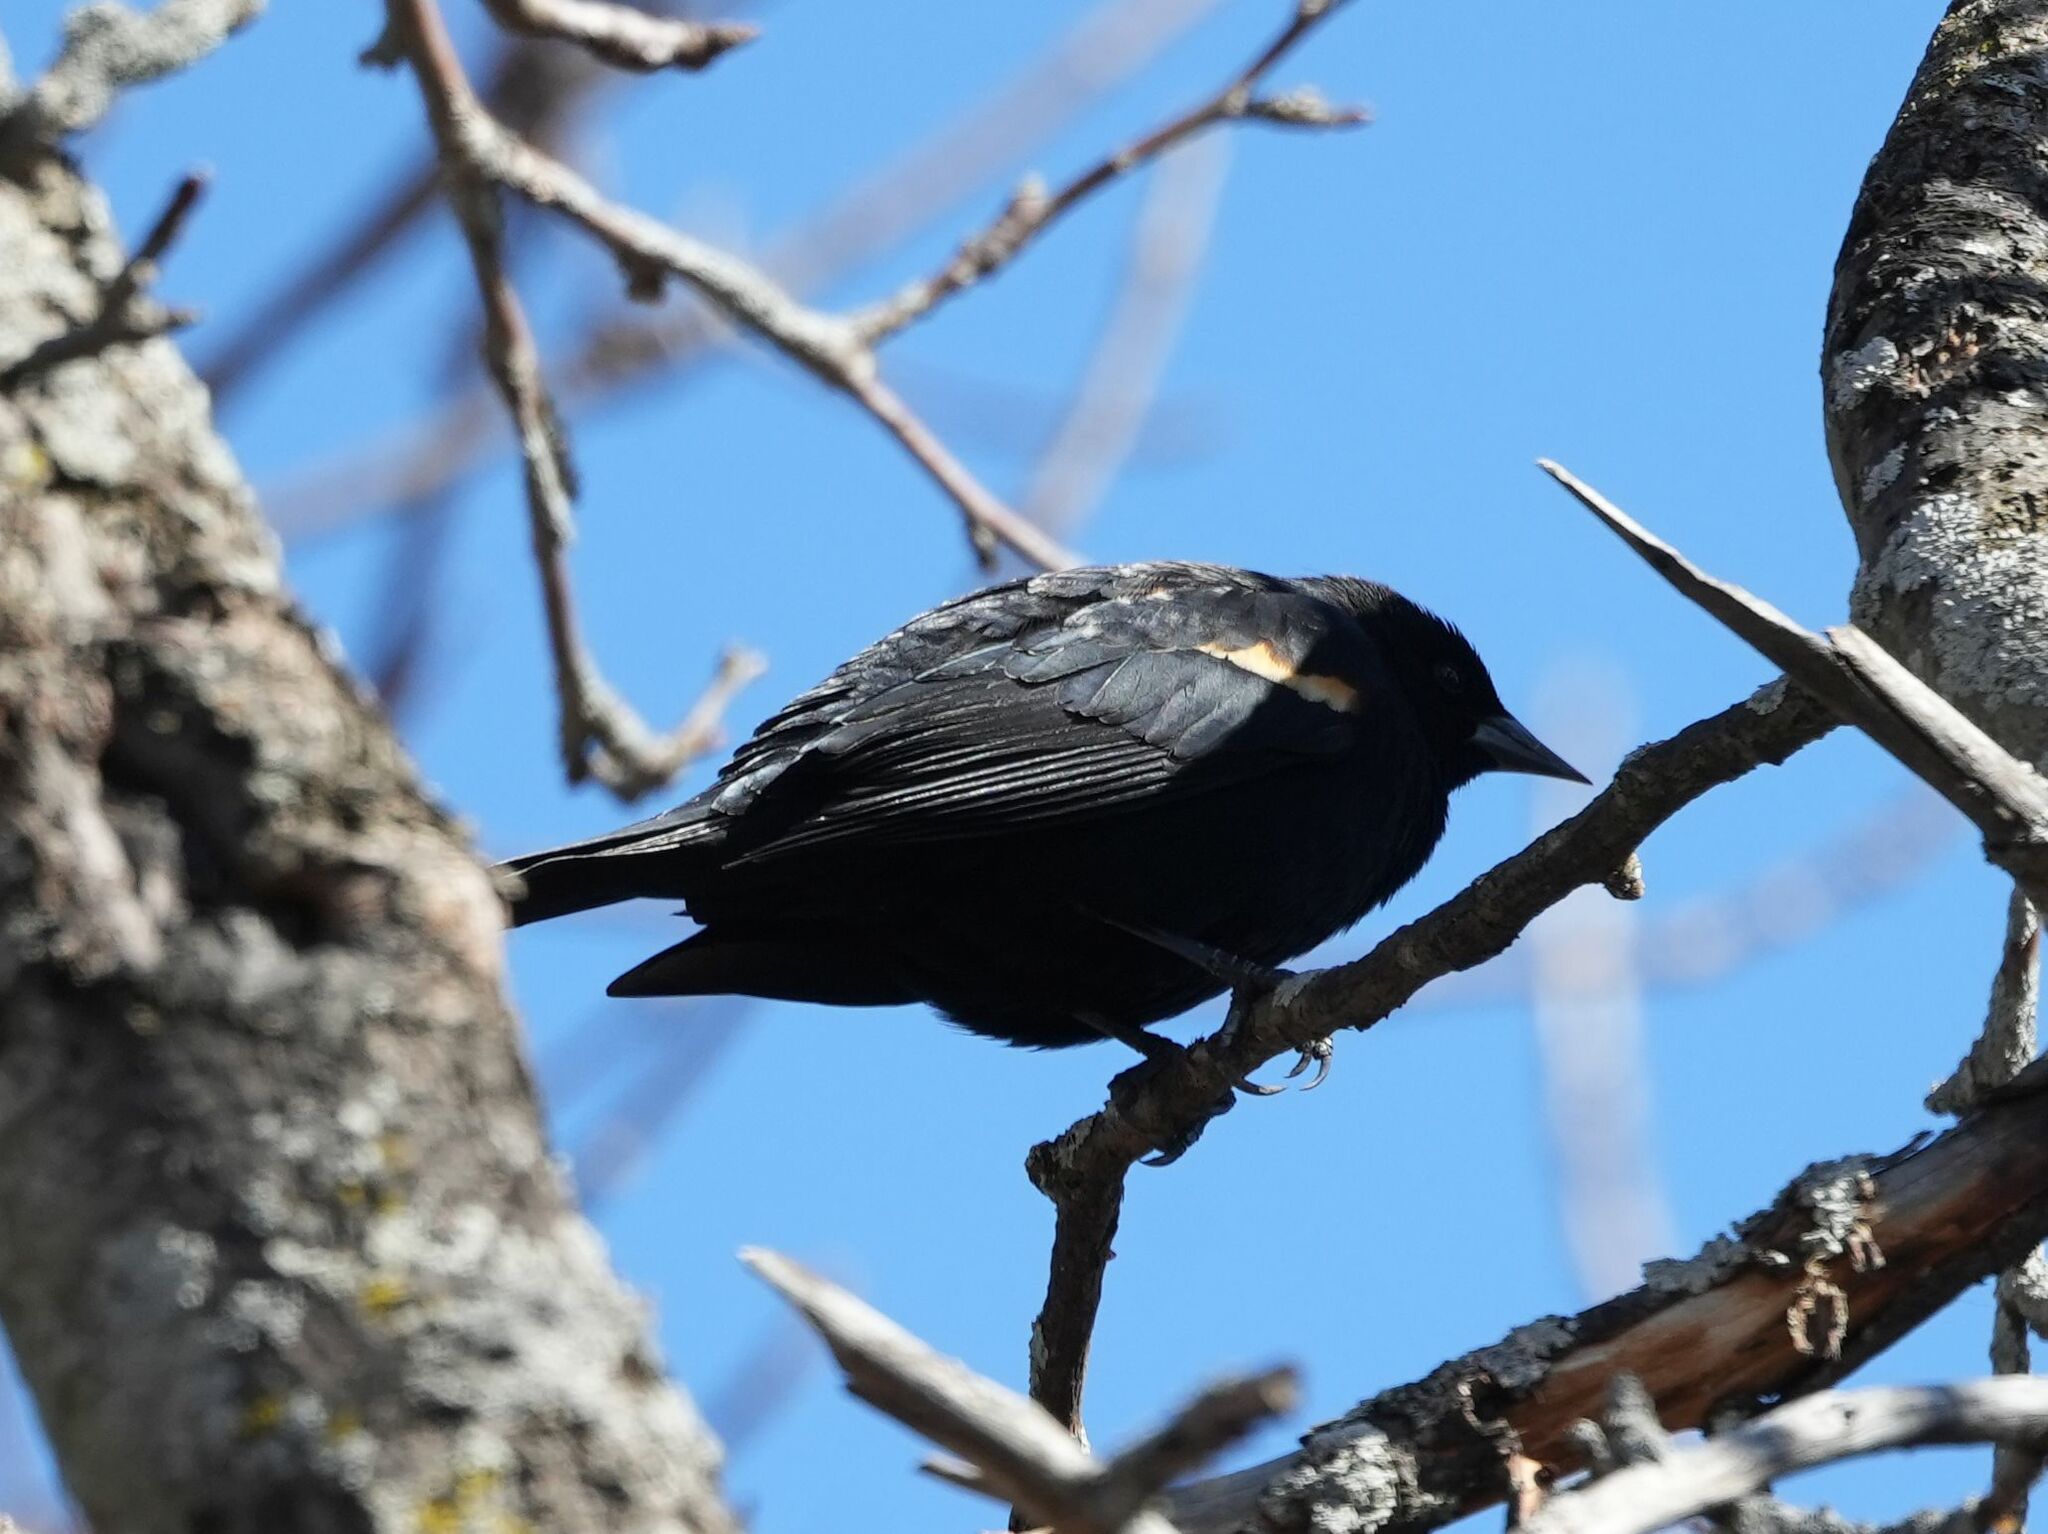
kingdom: Animalia
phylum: Chordata
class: Aves
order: Passeriformes
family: Icteridae
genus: Agelaius
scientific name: Agelaius phoeniceus
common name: Red-winged blackbird
